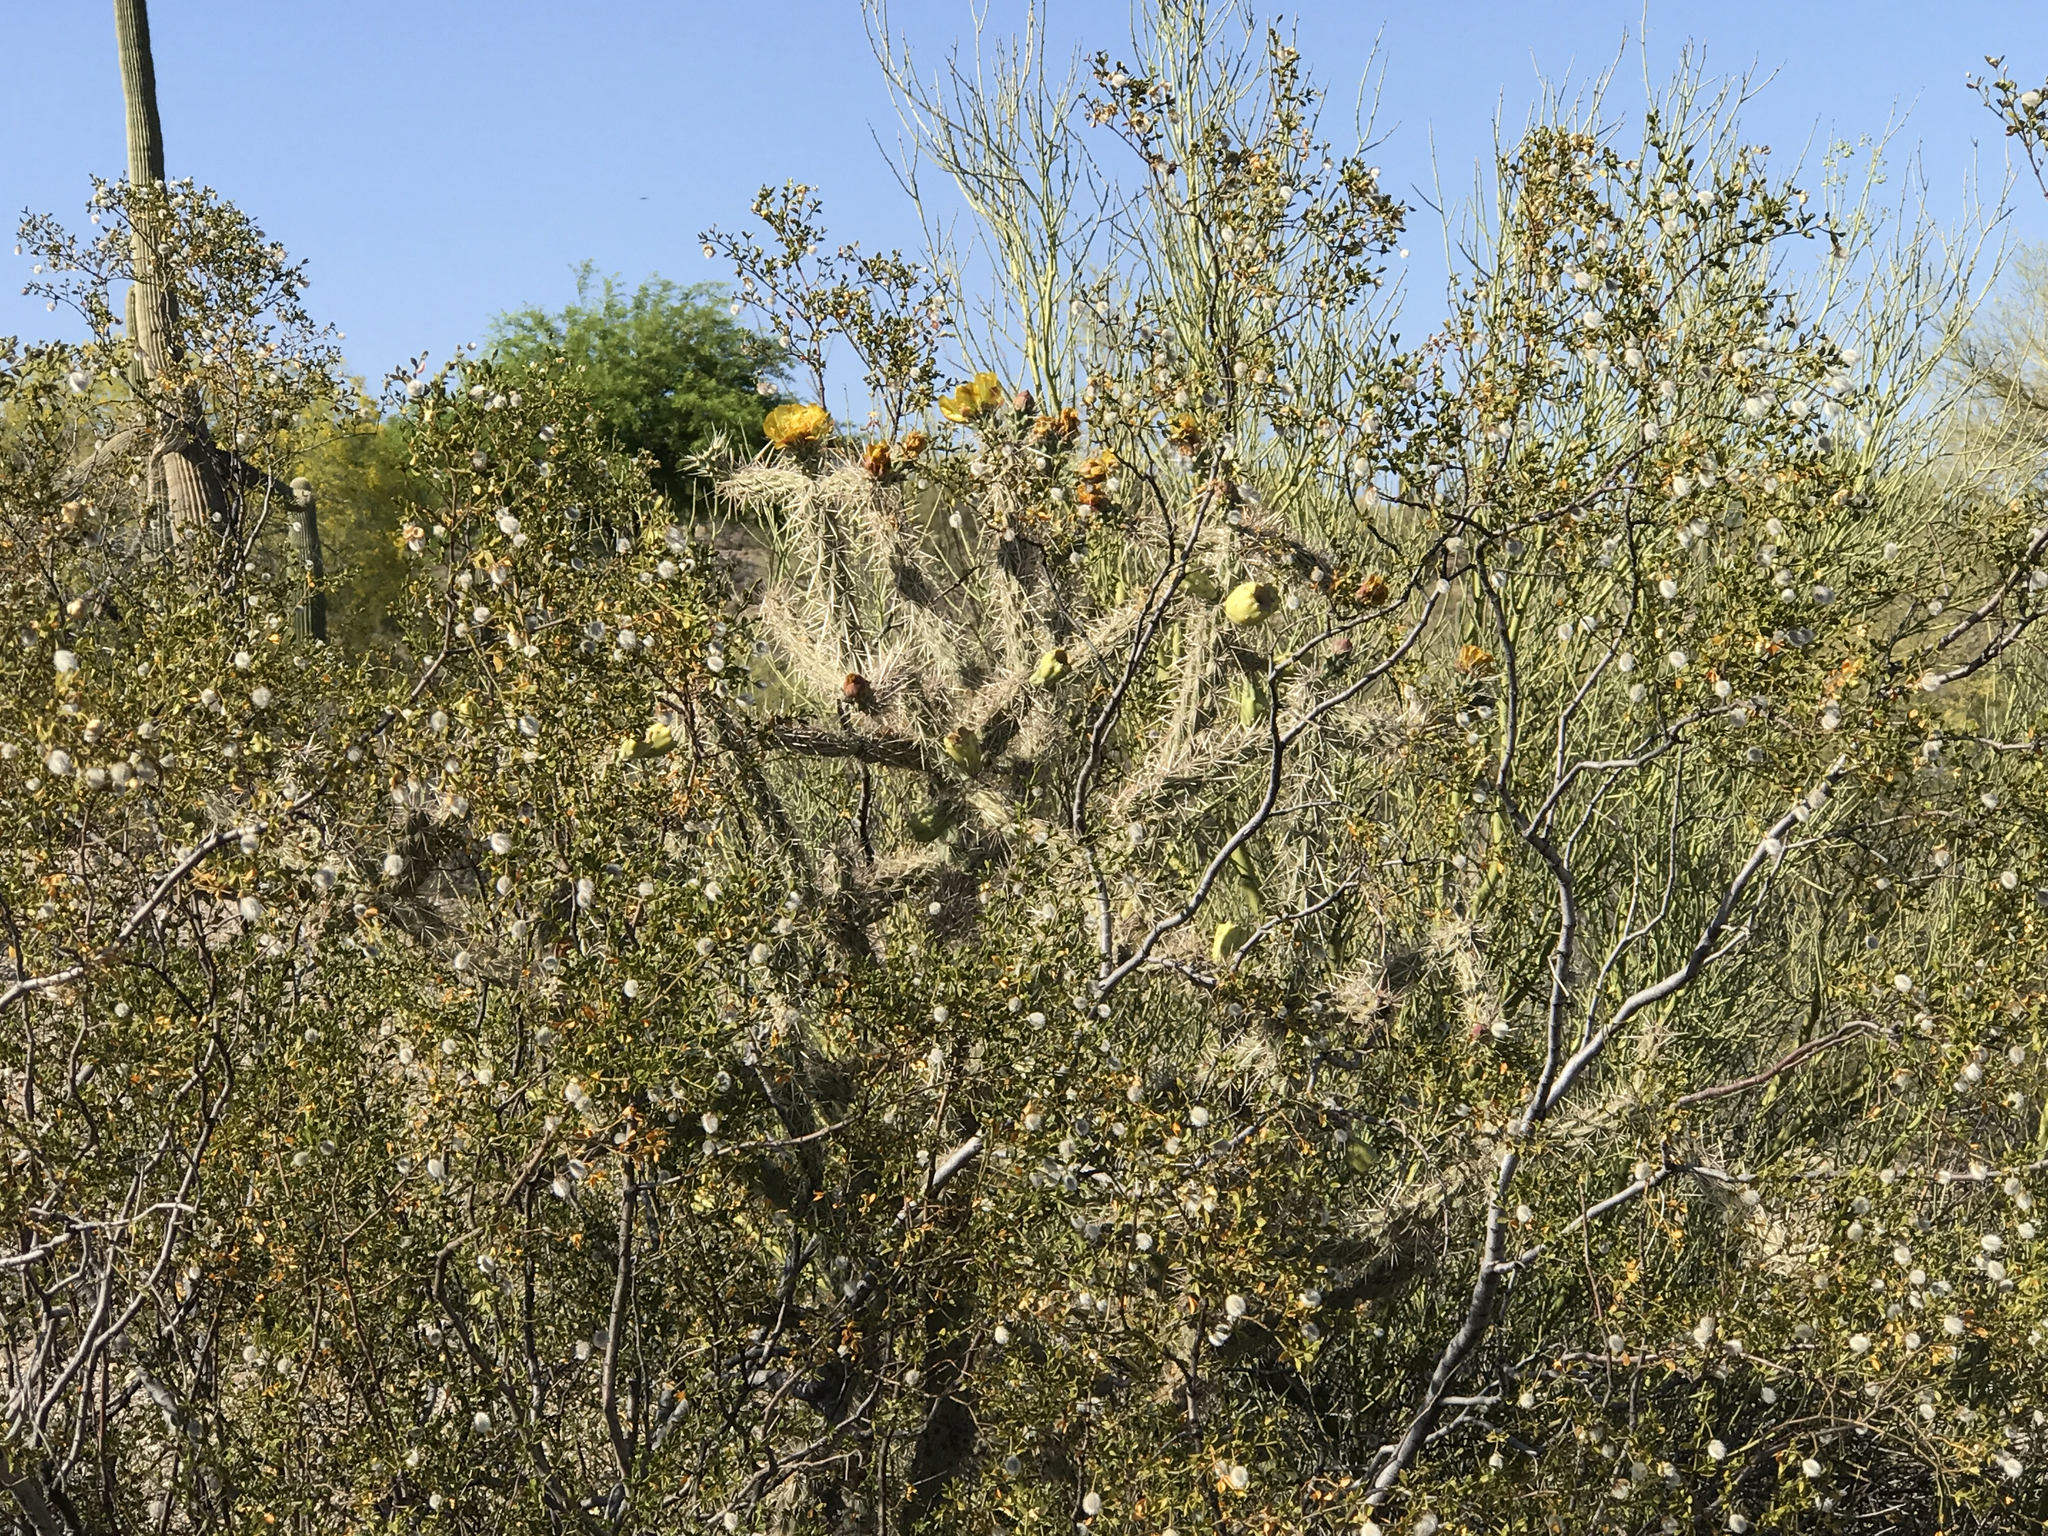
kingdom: Plantae
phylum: Tracheophyta
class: Magnoliopsida
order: Caryophyllales
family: Cactaceae
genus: Cylindropuntia
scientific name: Cylindropuntia thurberi
